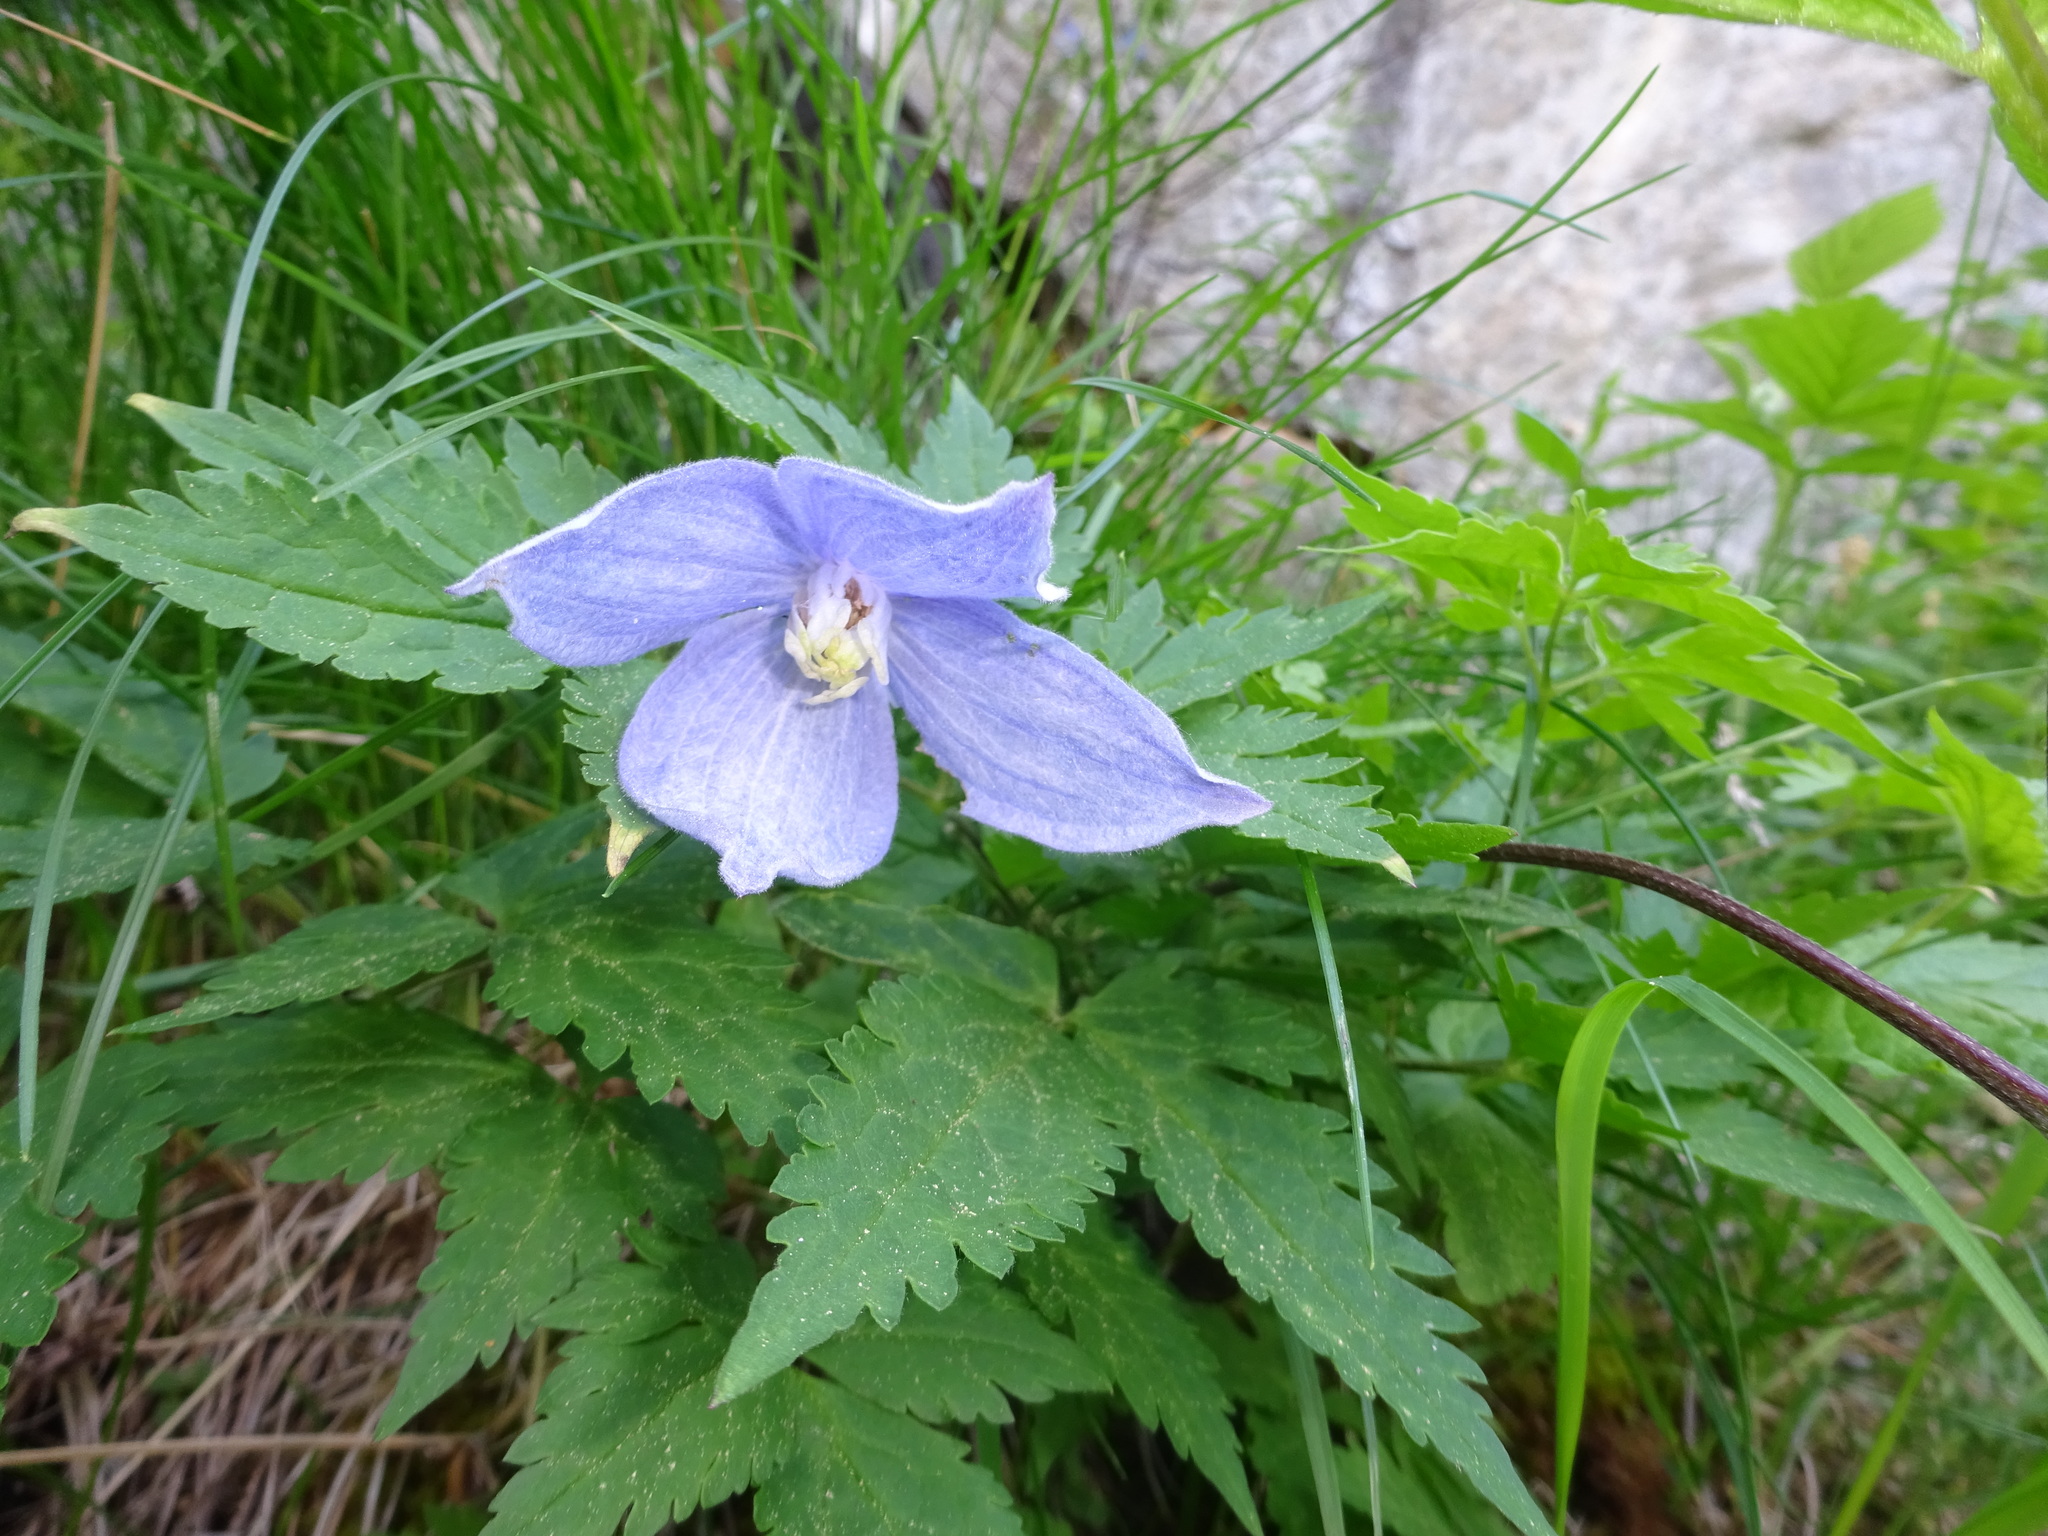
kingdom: Plantae
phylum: Tracheophyta
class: Magnoliopsida
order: Ranunculales
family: Ranunculaceae
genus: Clematis
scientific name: Clematis alpina
